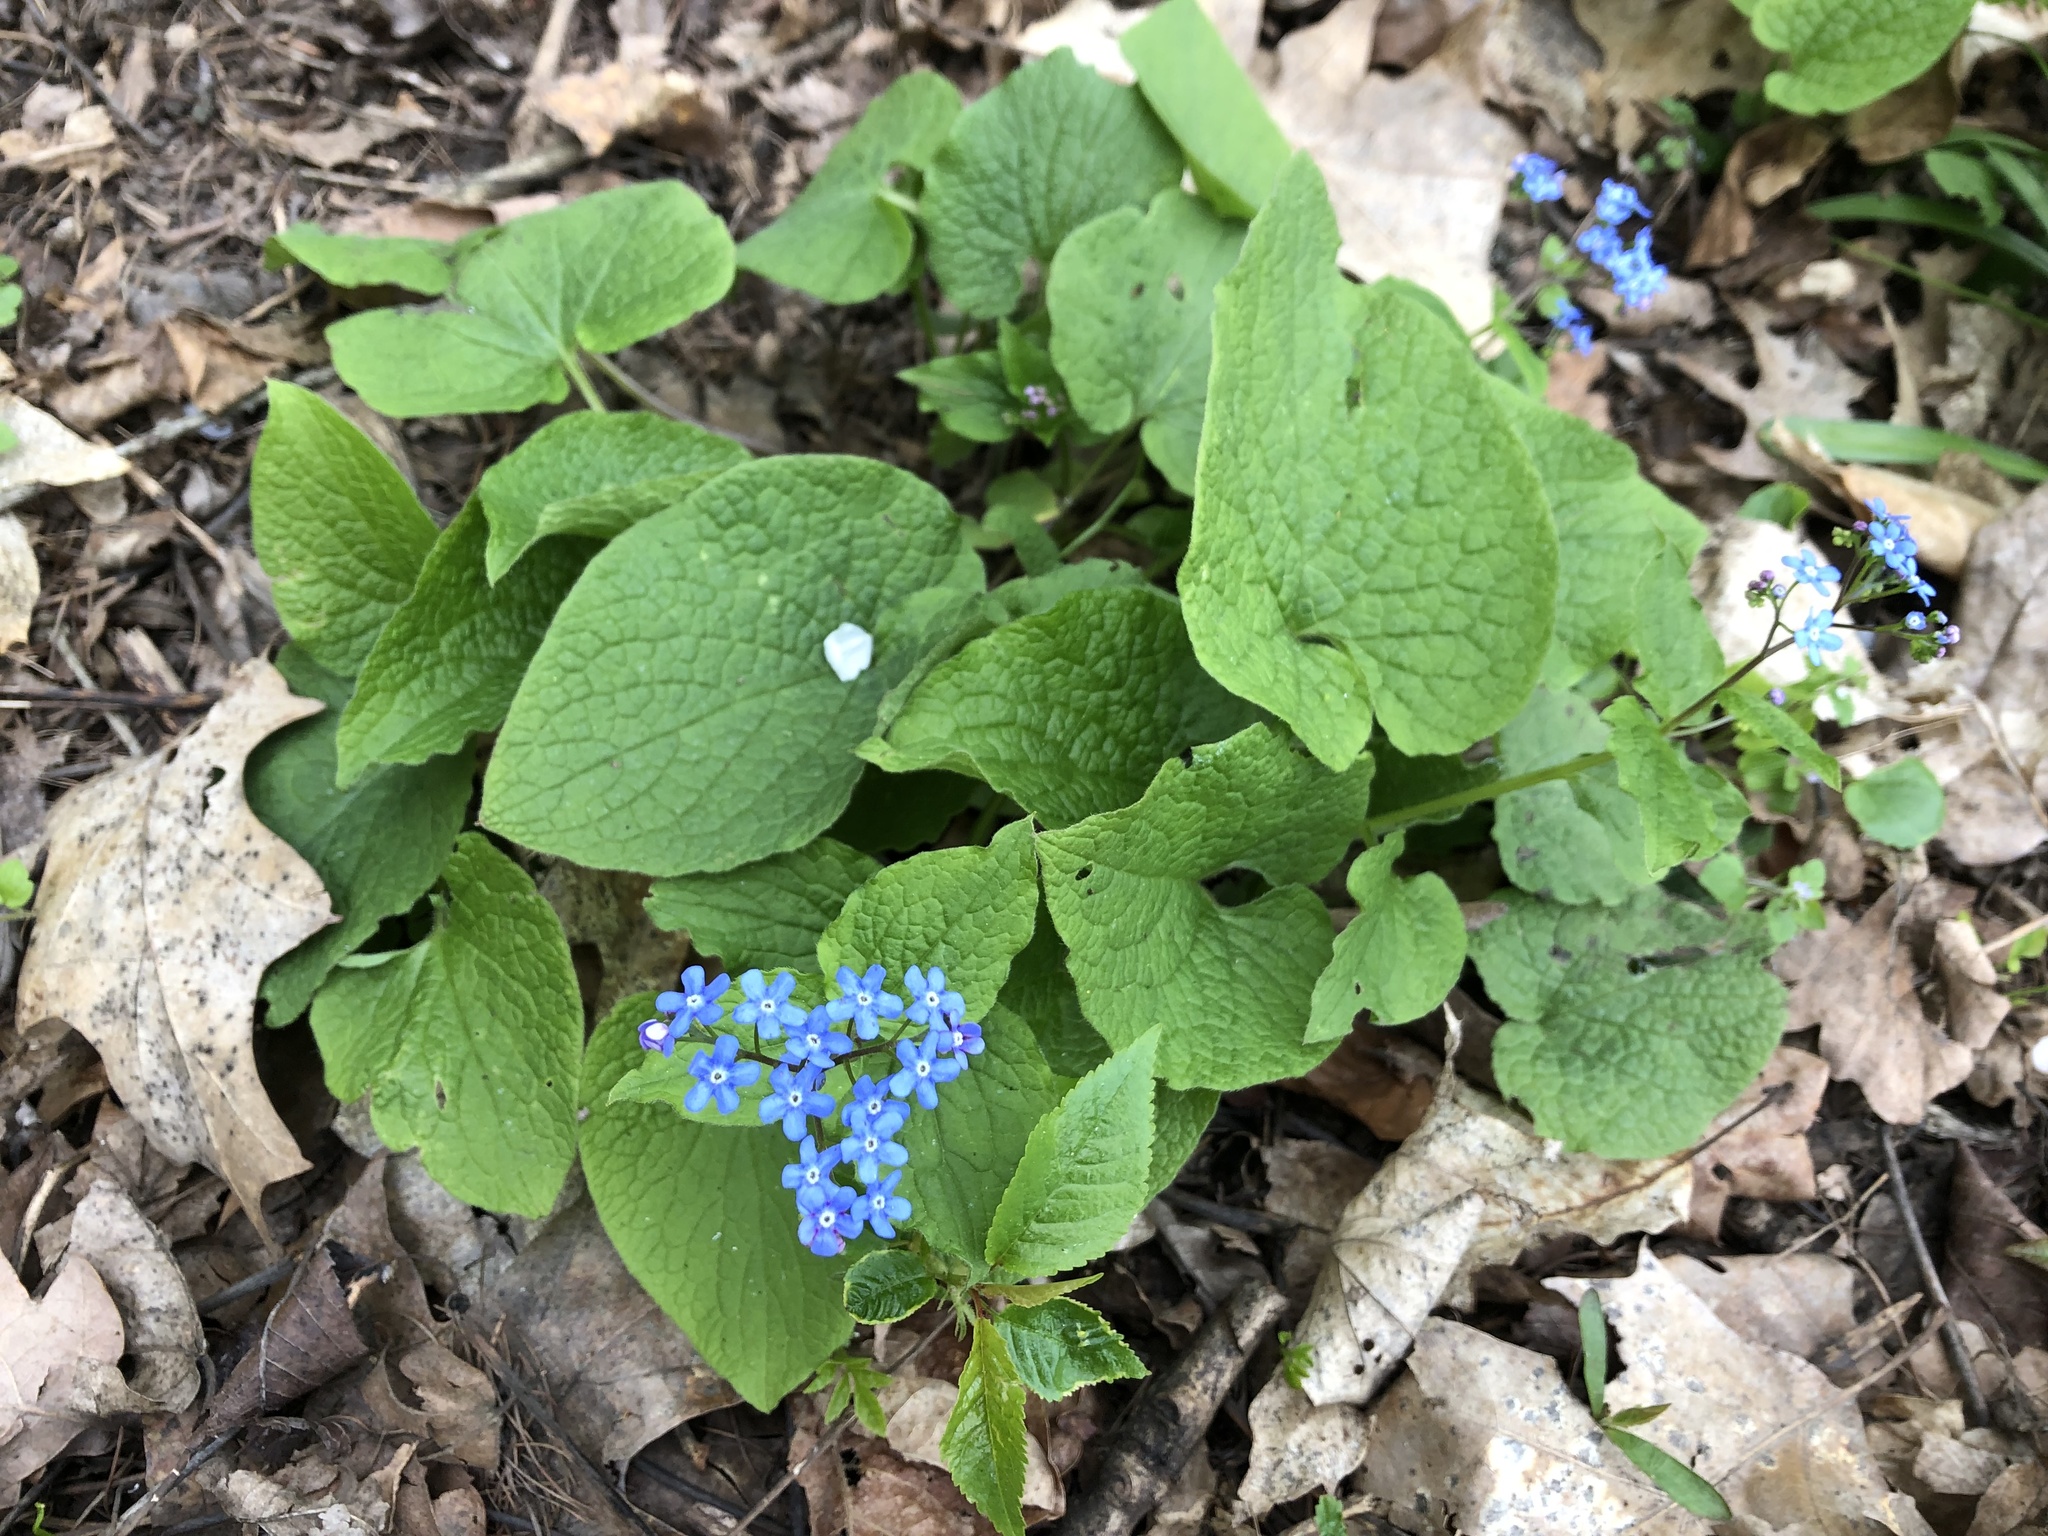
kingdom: Plantae
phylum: Tracheophyta
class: Magnoliopsida
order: Boraginales
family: Boraginaceae
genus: Brunnera
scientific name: Brunnera macrophylla
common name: Great forget-me-not
